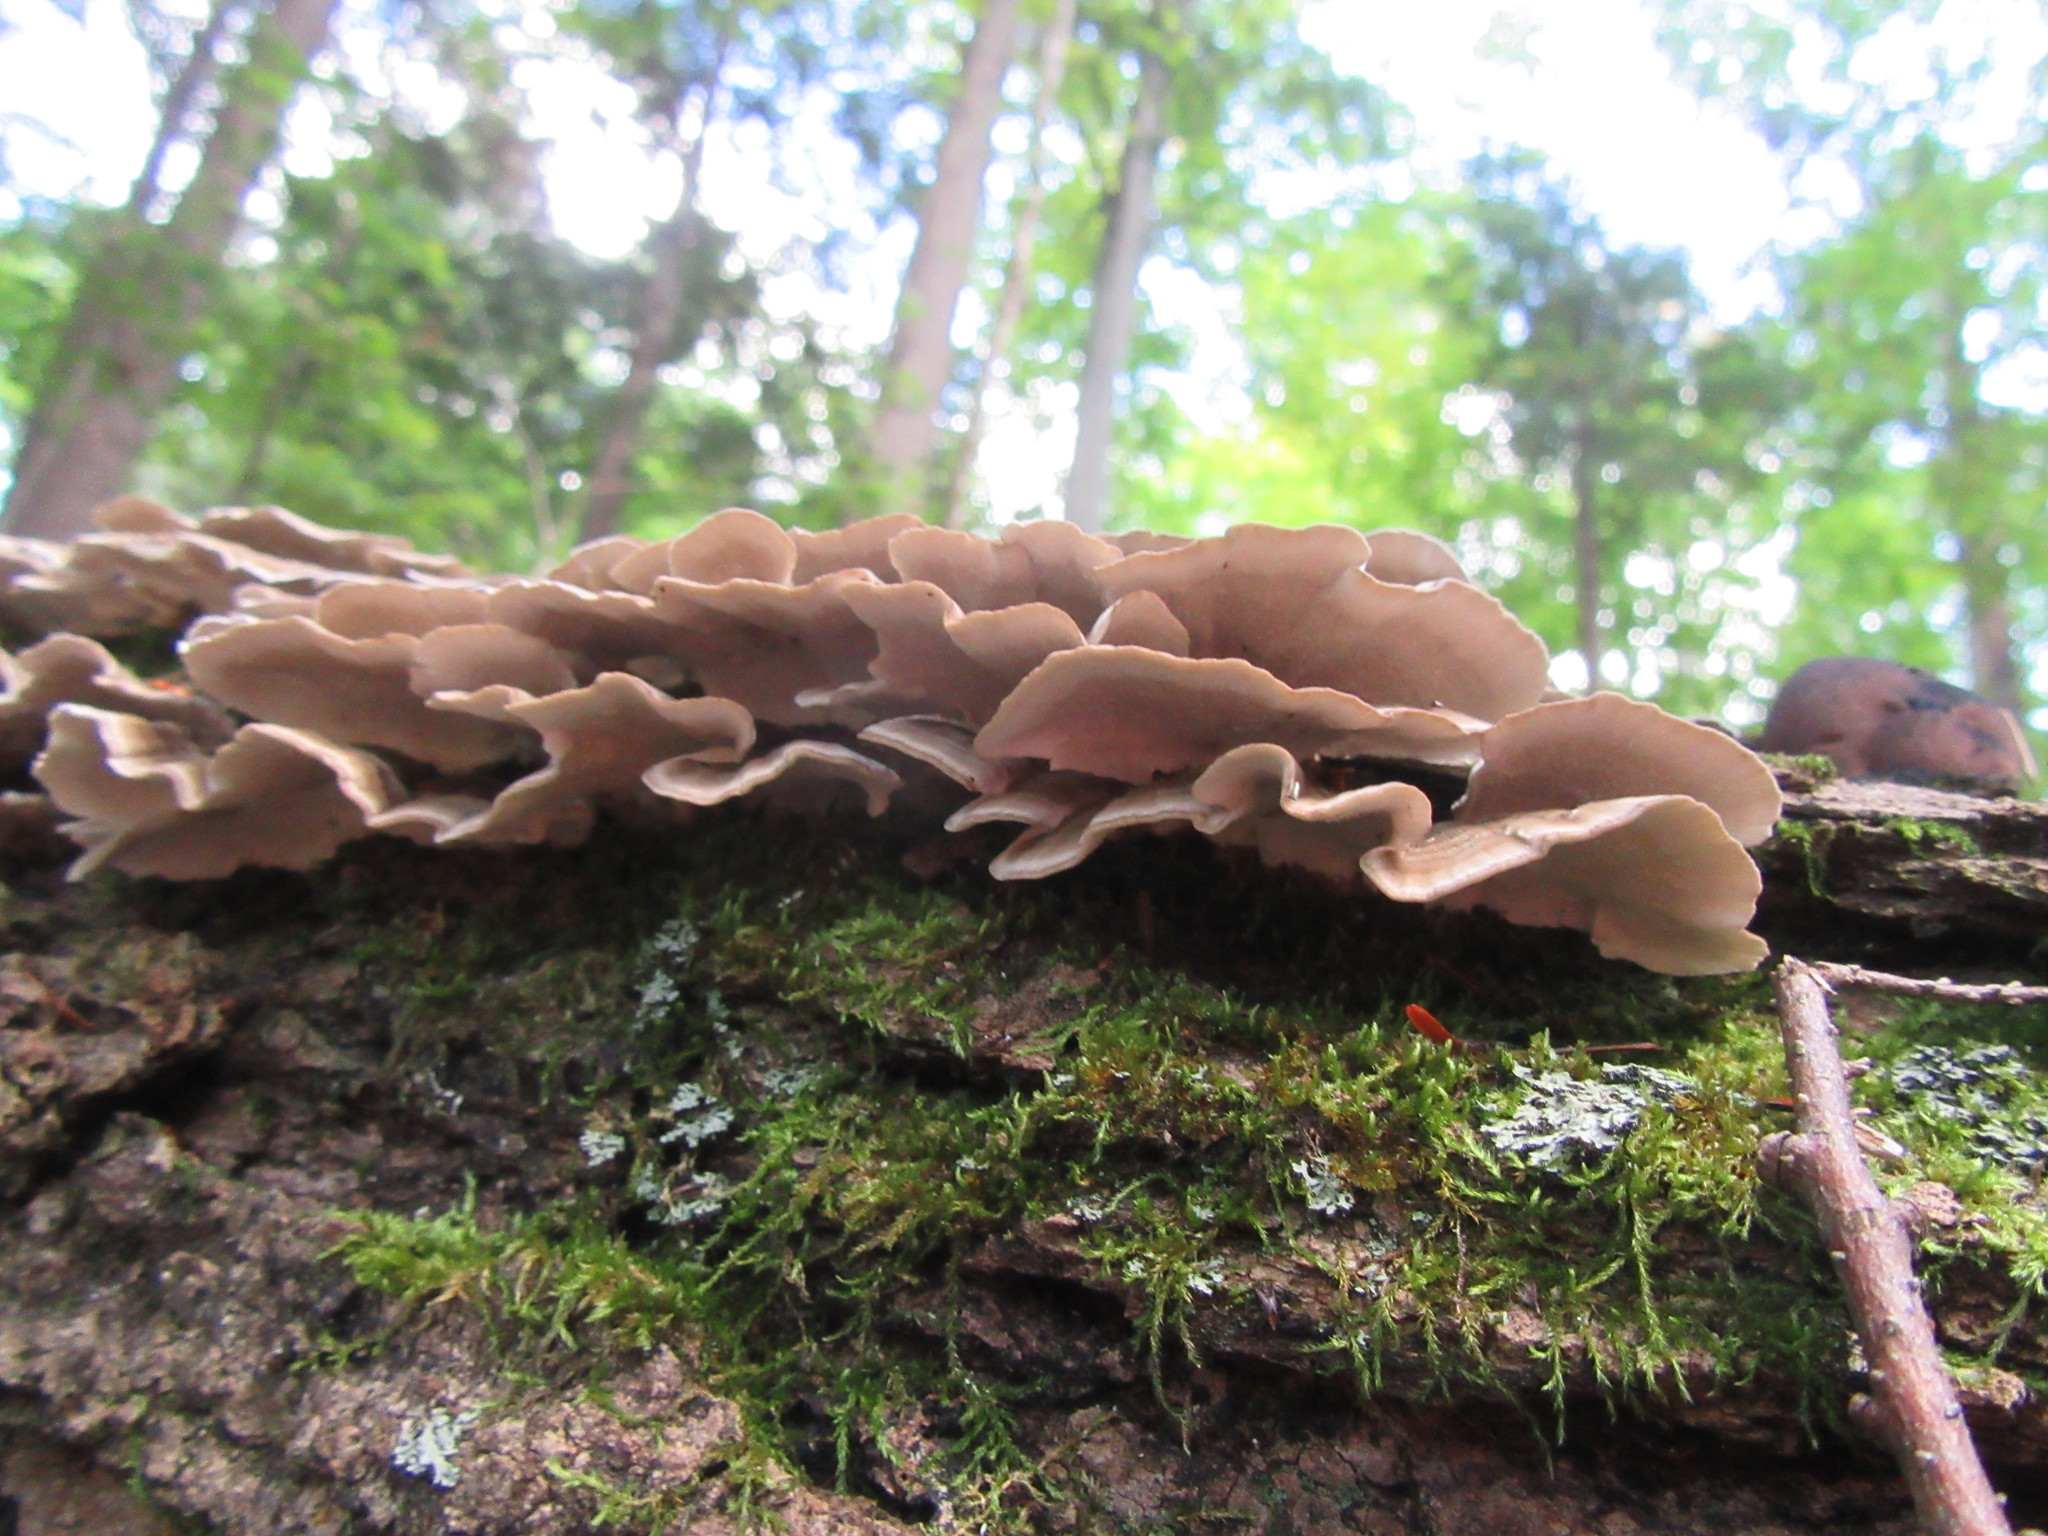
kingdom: Fungi
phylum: Basidiomycota
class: Agaricomycetes
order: Polyporales
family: Polyporaceae
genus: Trametes
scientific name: Trametes versicolor
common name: Turkeytail
